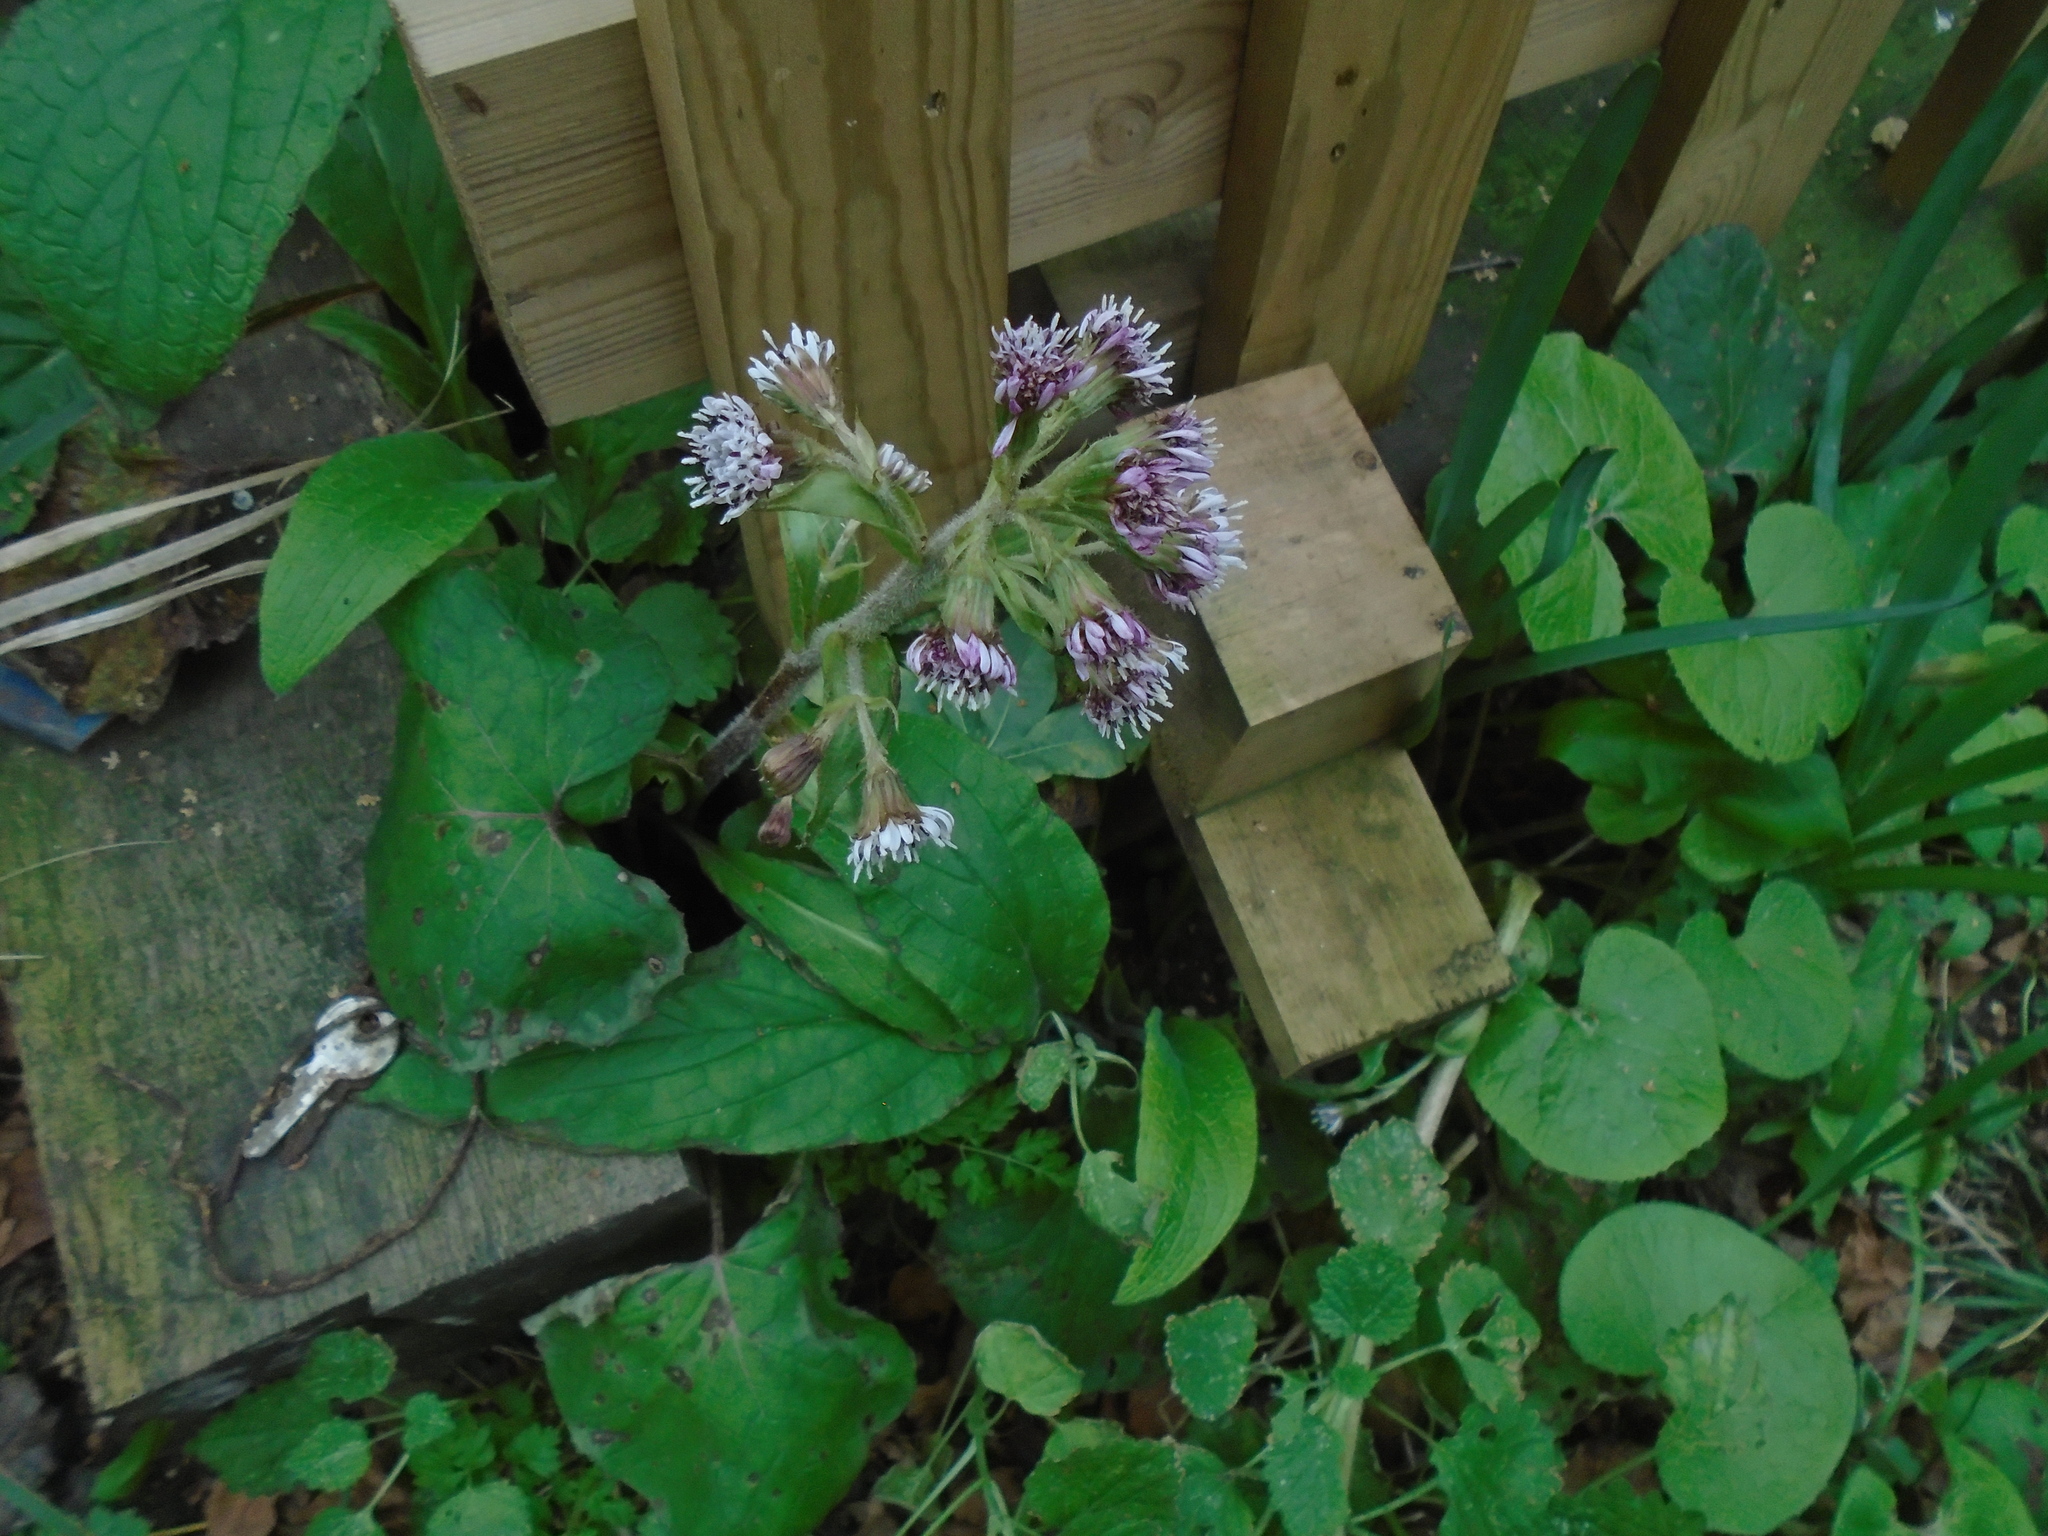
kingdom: Plantae
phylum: Tracheophyta
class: Magnoliopsida
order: Asterales
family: Asteraceae
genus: Petasites
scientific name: Petasites pyrenaicus
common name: Winter heliotrope
